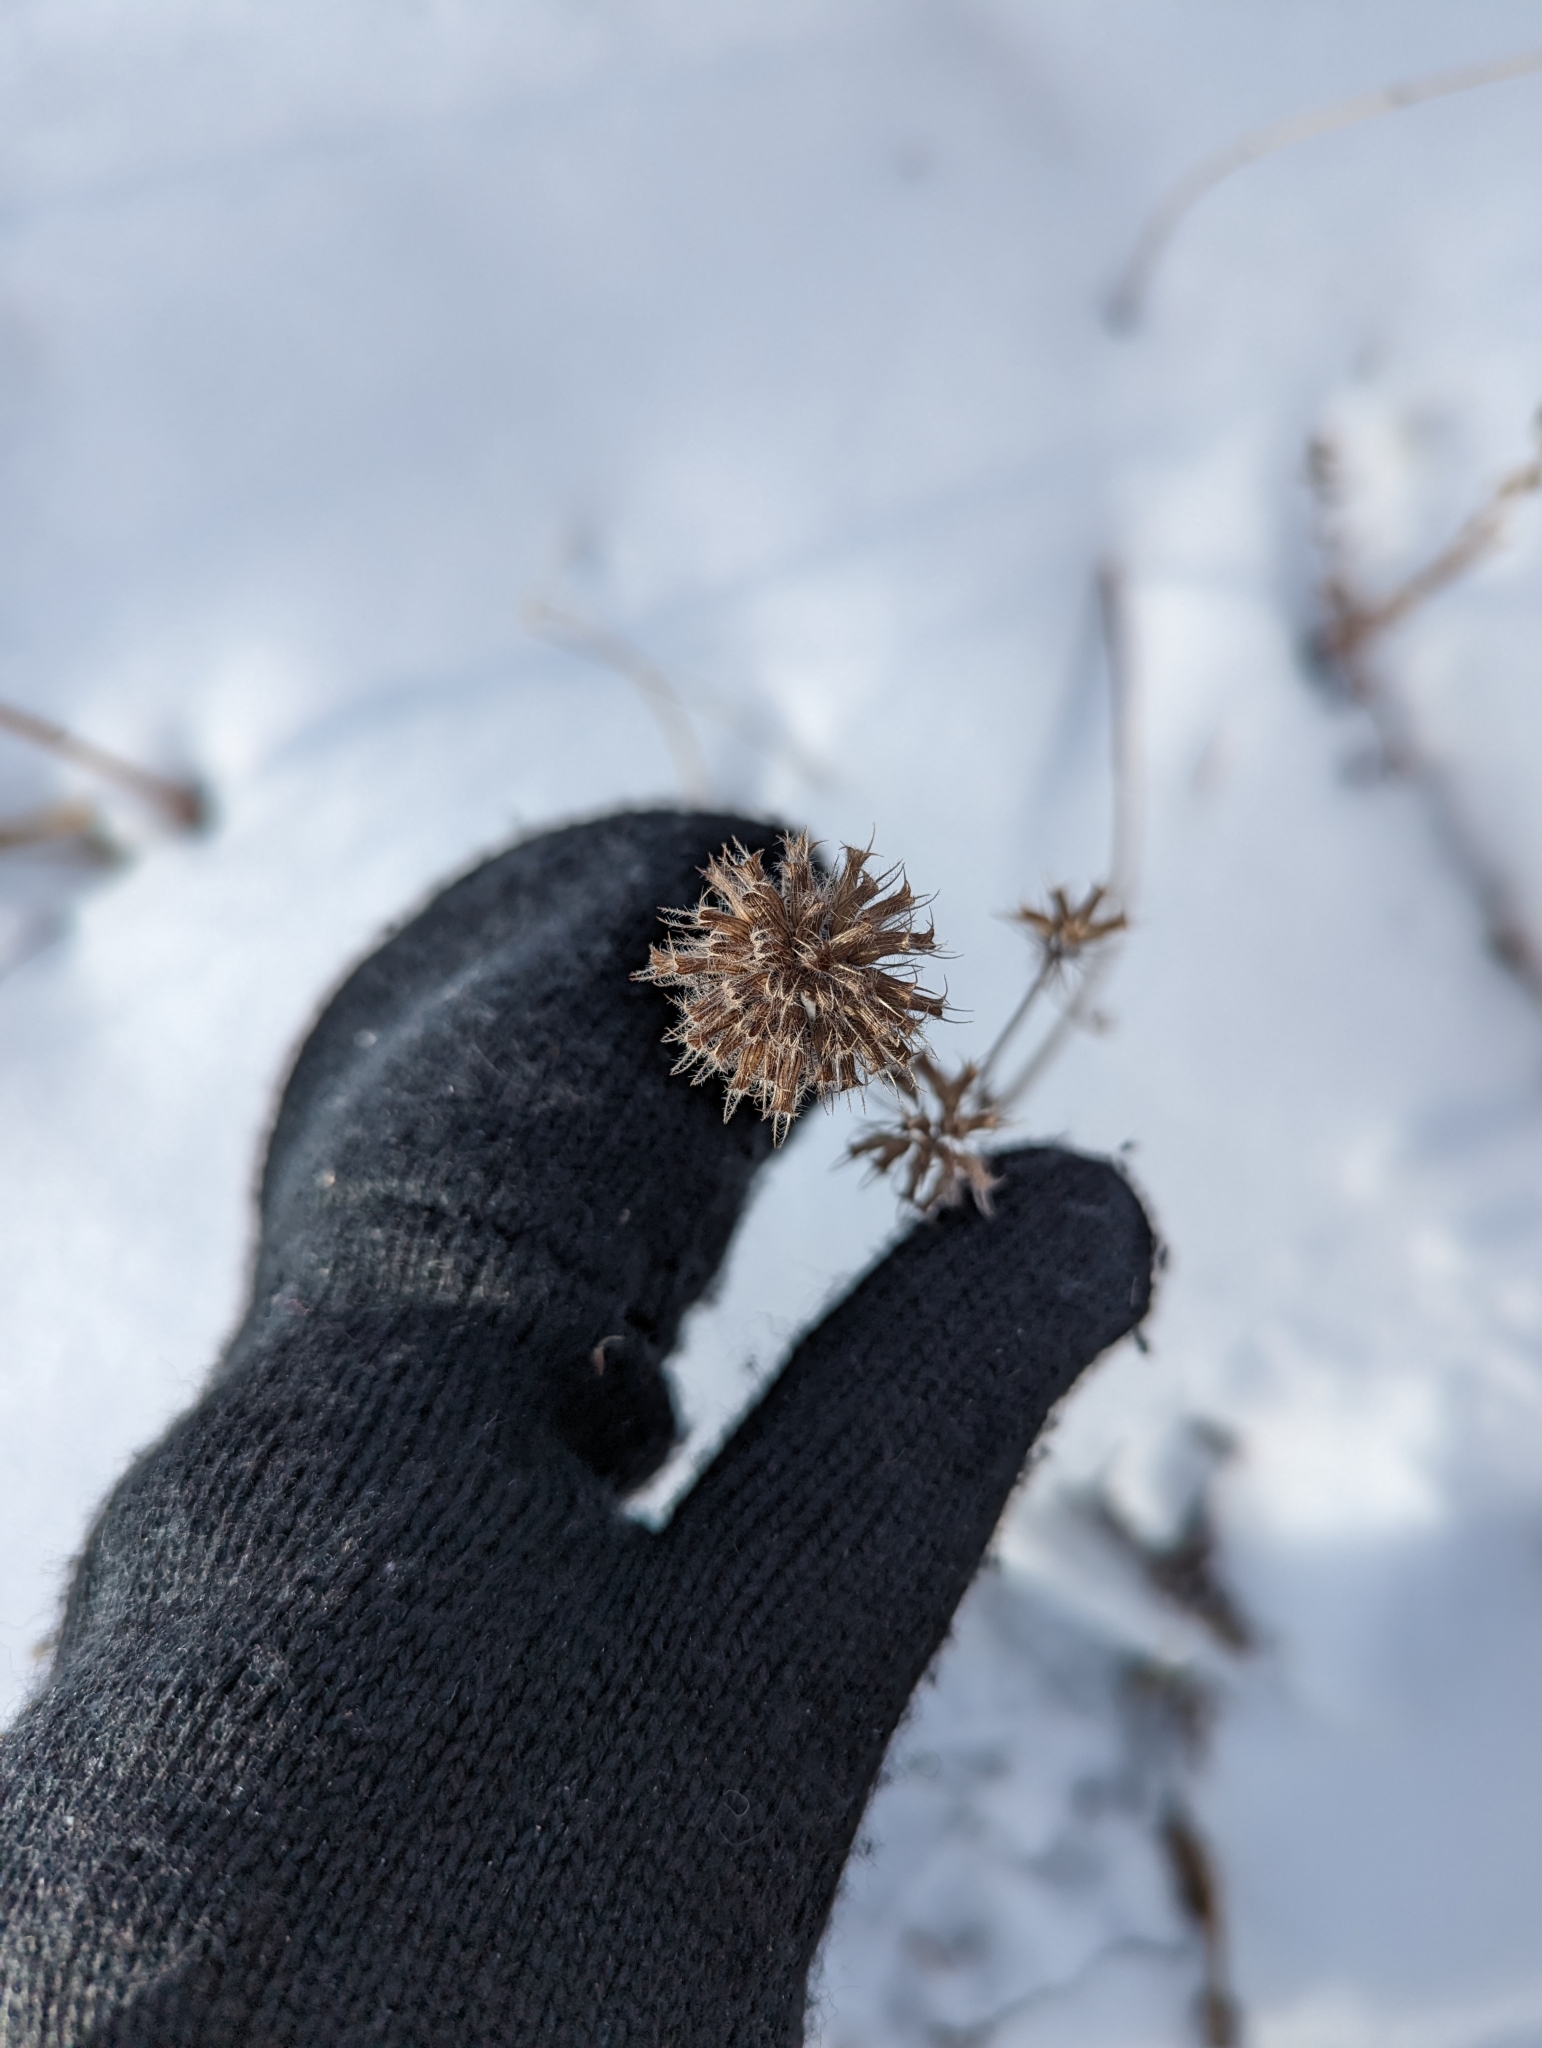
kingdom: Plantae
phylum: Tracheophyta
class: Magnoliopsida
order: Lamiales
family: Lamiaceae
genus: Clinopodium
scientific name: Clinopodium vulgare
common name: Wild basil
